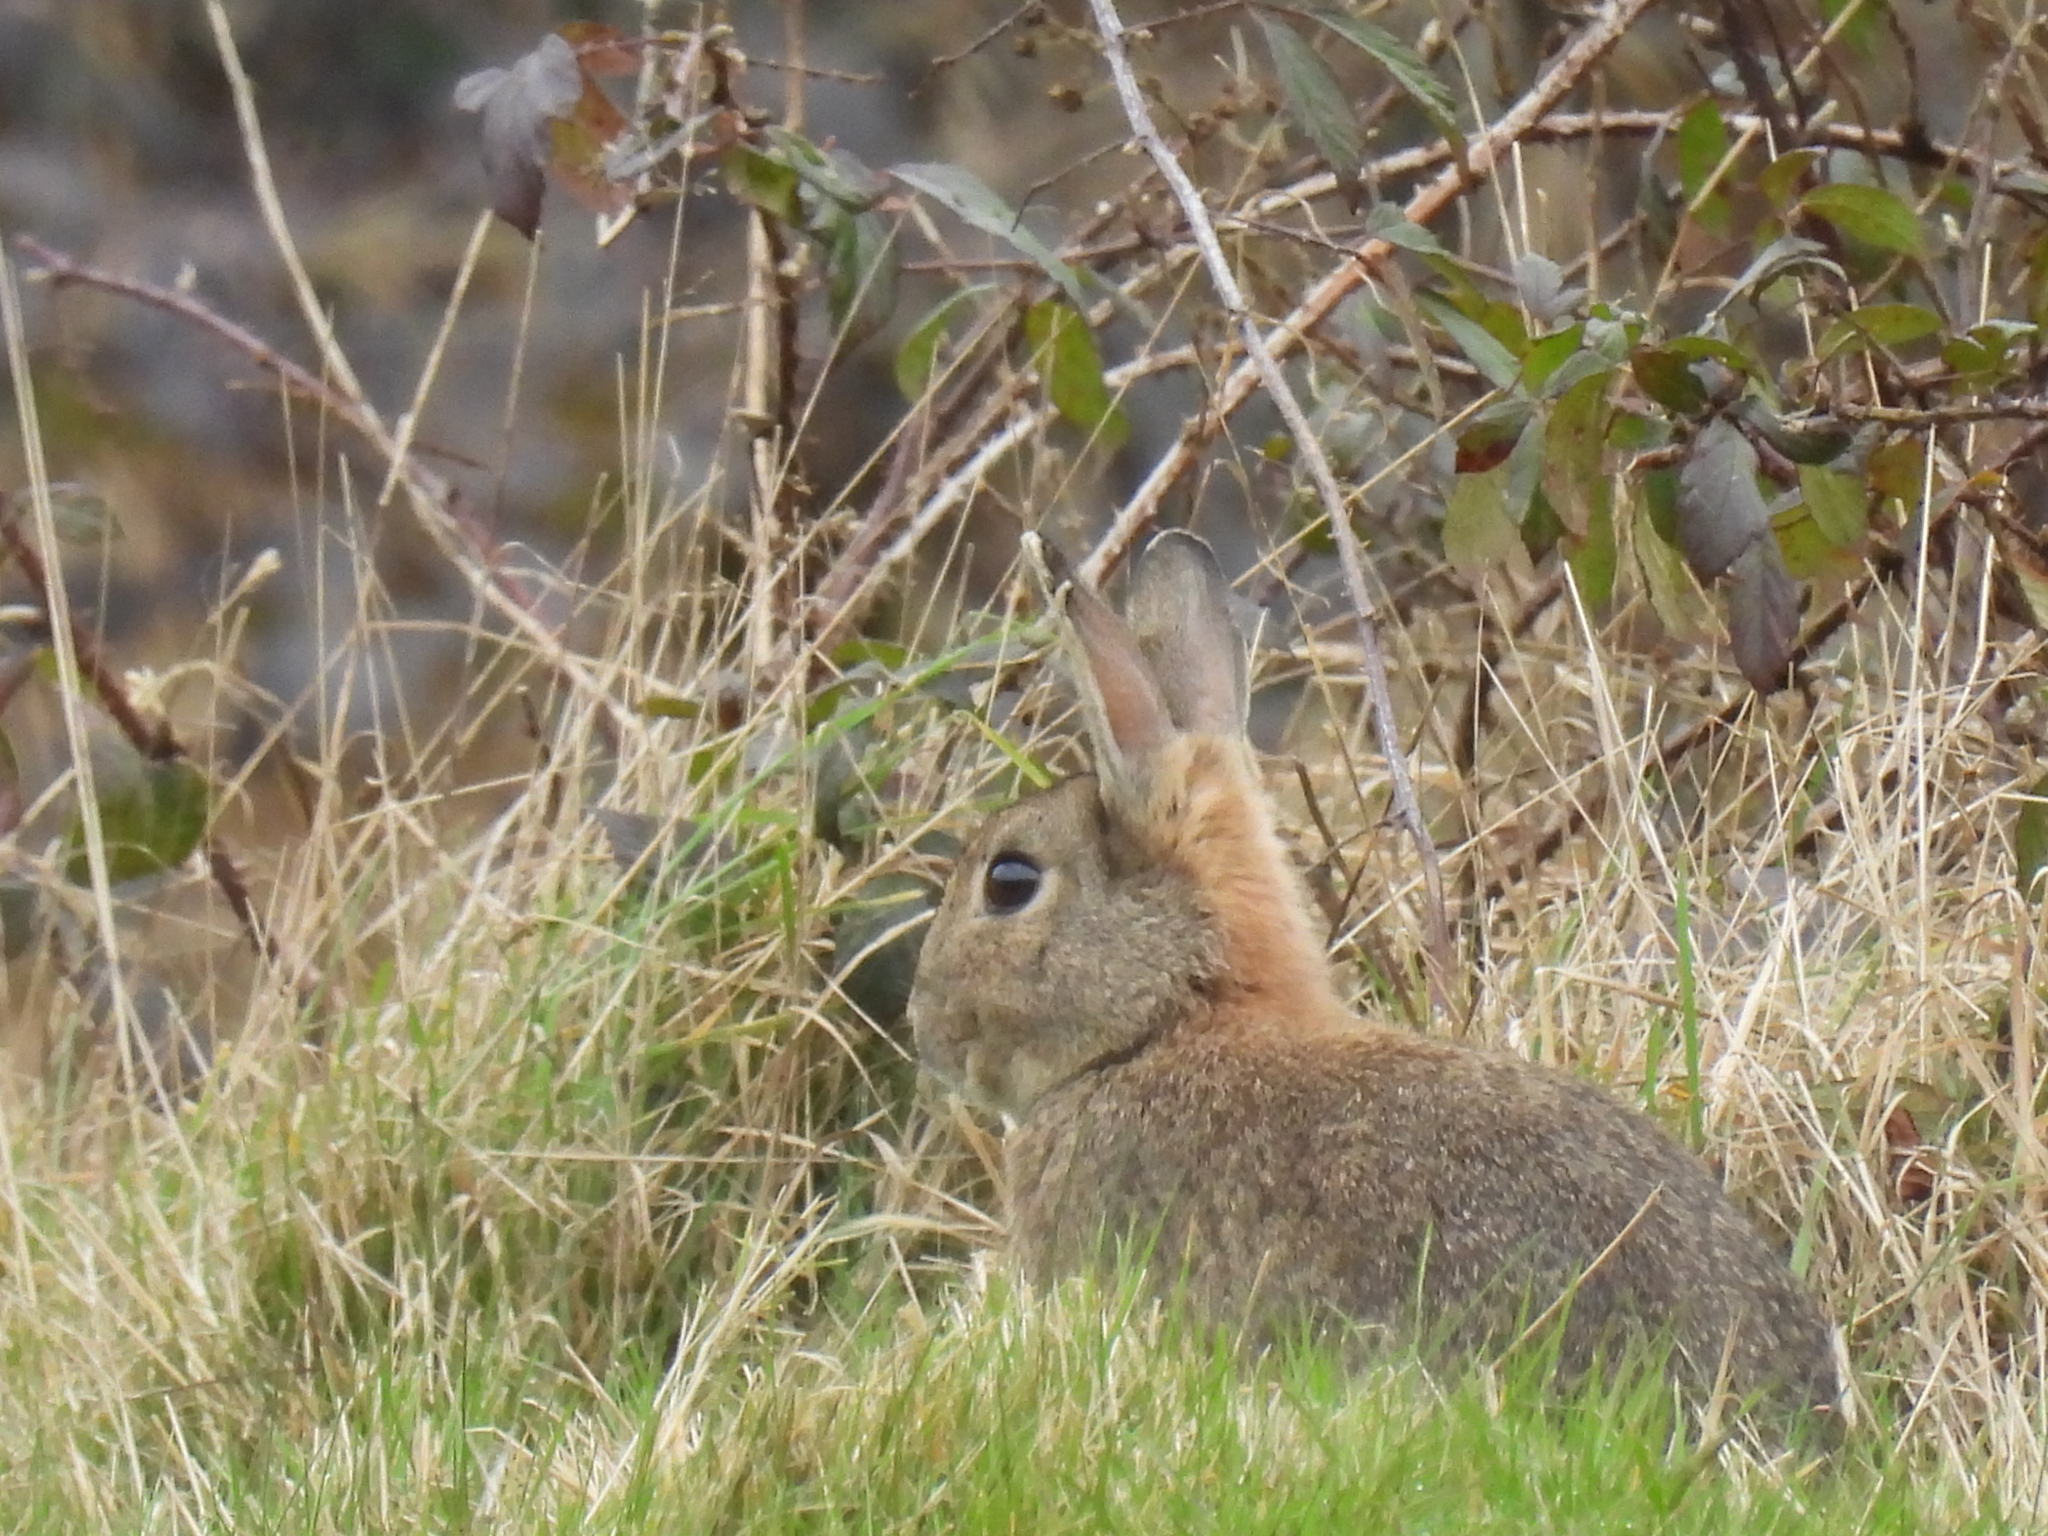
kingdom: Animalia
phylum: Chordata
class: Mammalia
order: Lagomorpha
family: Leporidae
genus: Oryctolagus
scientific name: Oryctolagus cuniculus
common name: European rabbit
